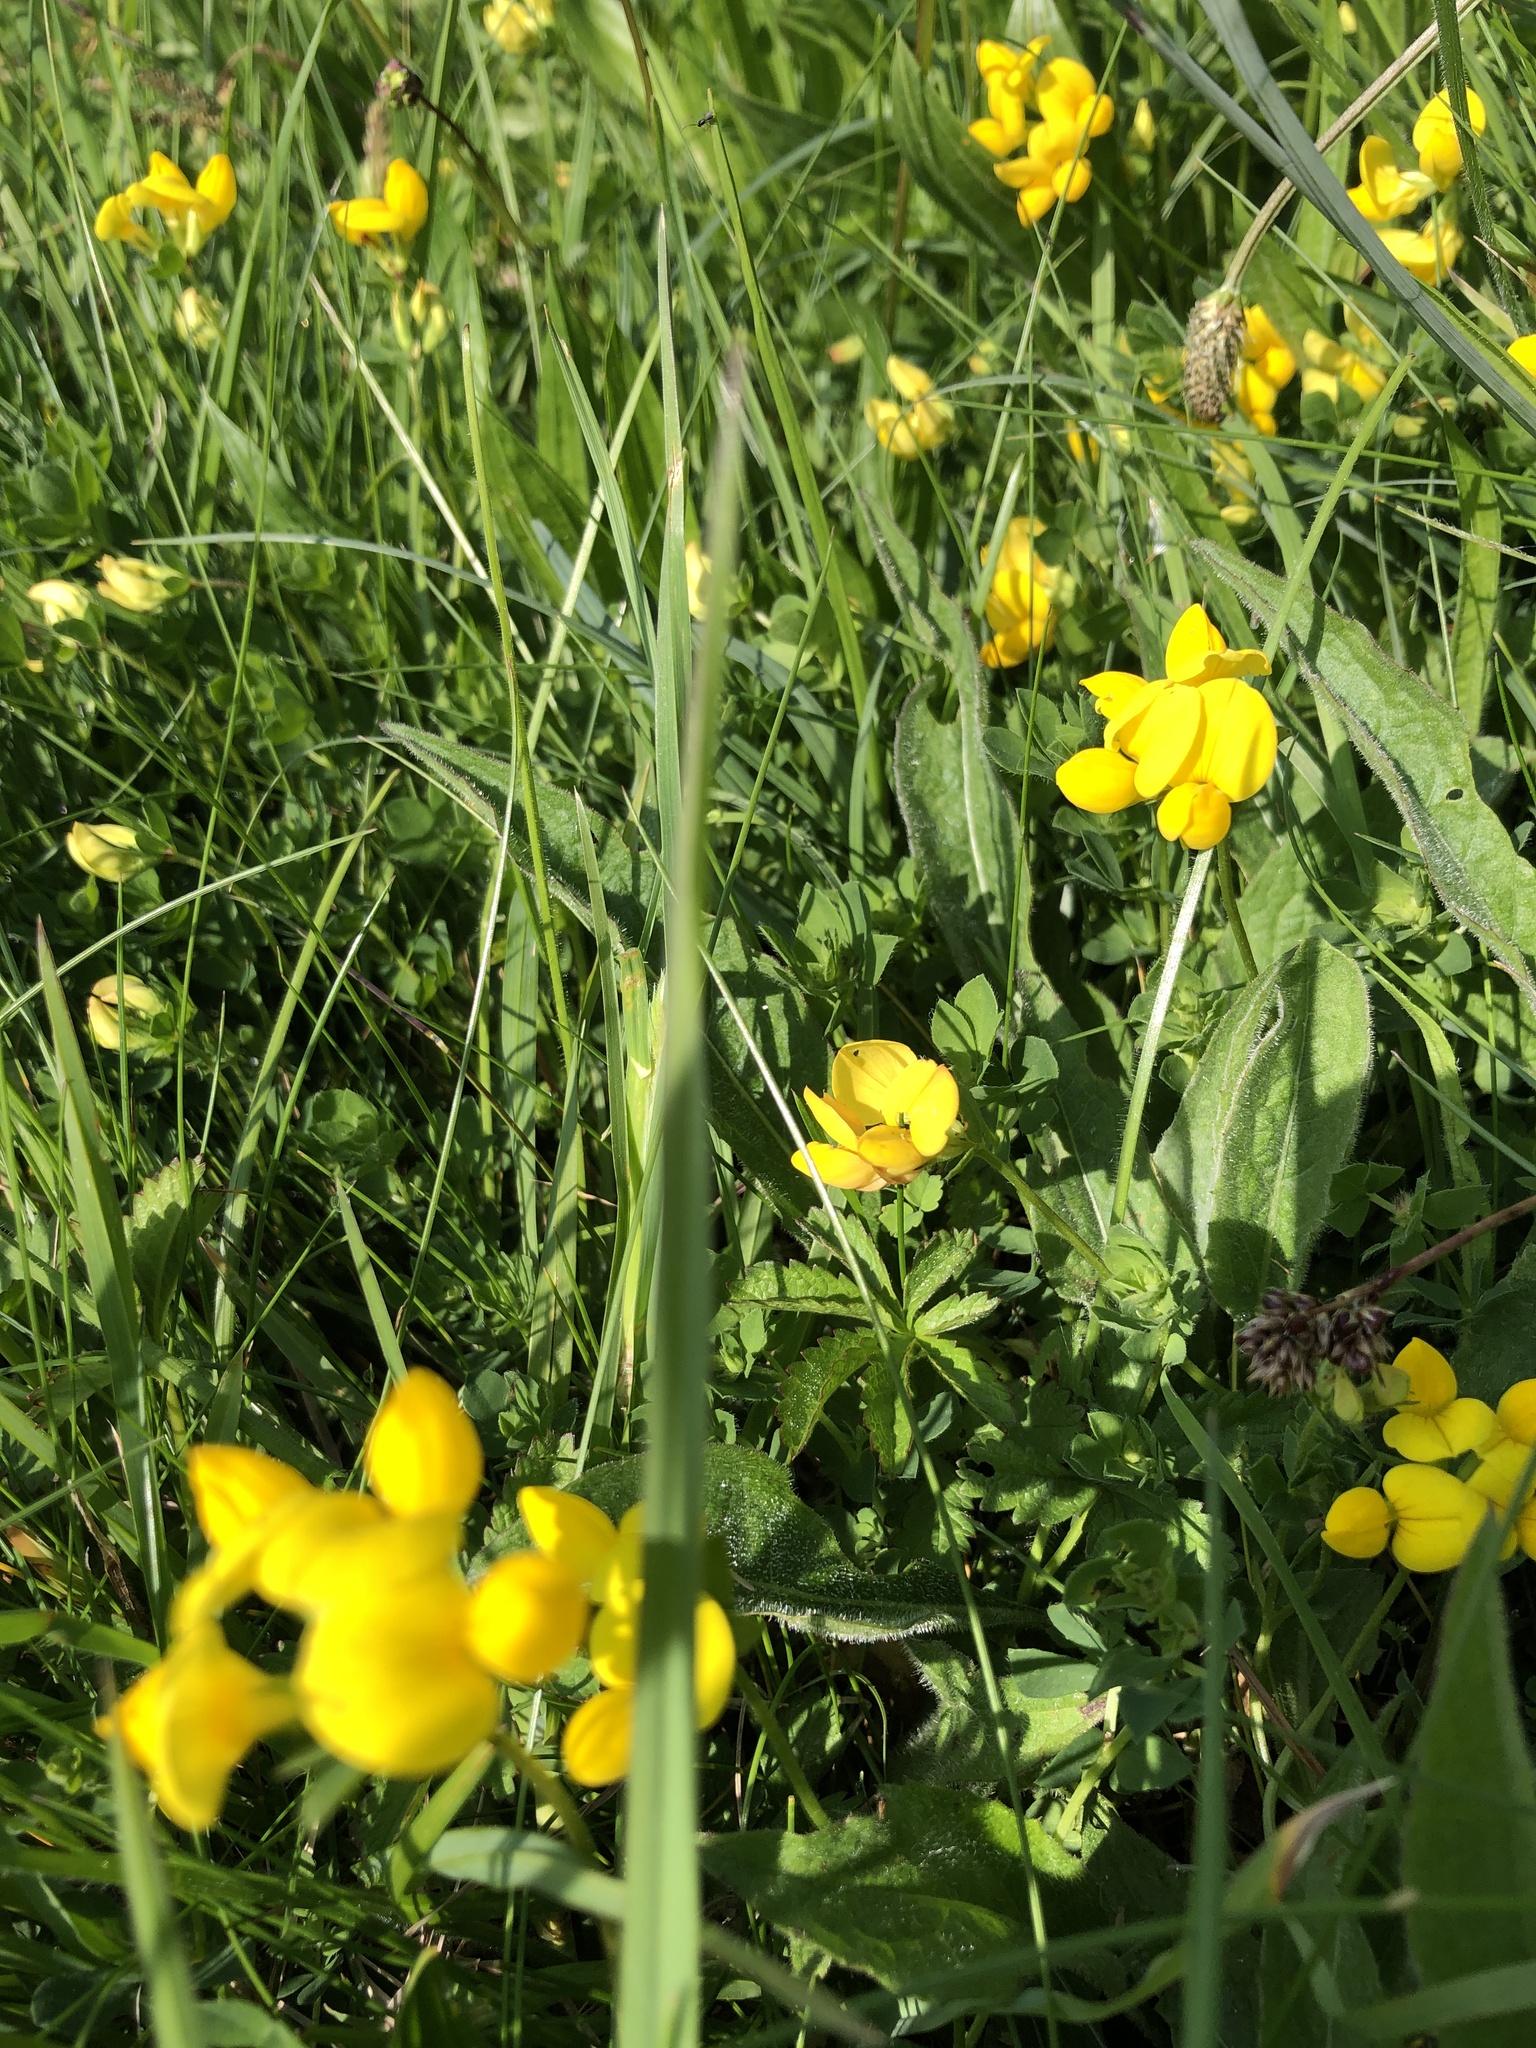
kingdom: Plantae
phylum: Tracheophyta
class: Magnoliopsida
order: Fabales
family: Fabaceae
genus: Lotus
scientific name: Lotus corniculatus
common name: Common bird's-foot-trefoil
